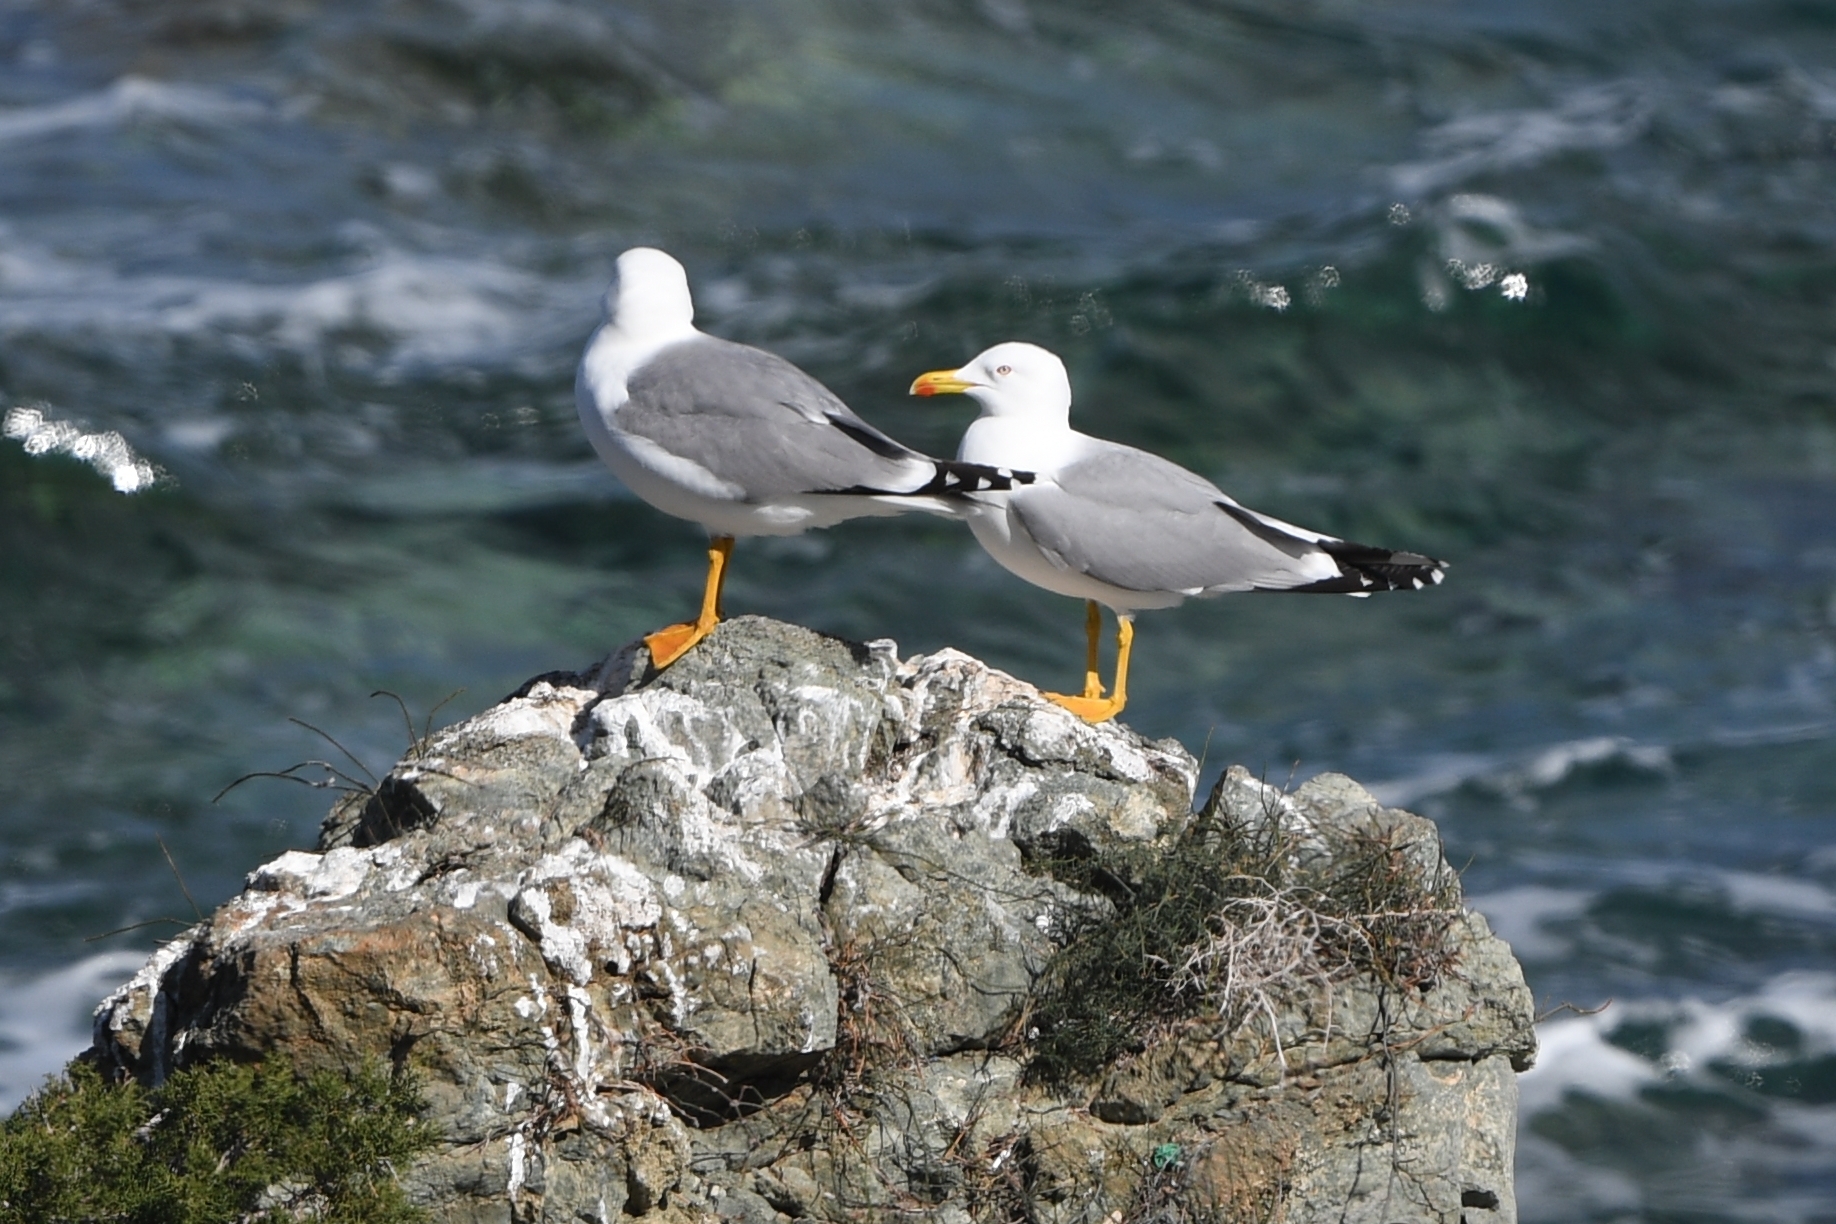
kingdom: Animalia
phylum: Chordata
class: Aves
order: Charadriiformes
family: Laridae
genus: Larus
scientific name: Larus michahellis
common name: Yellow-legged gull
